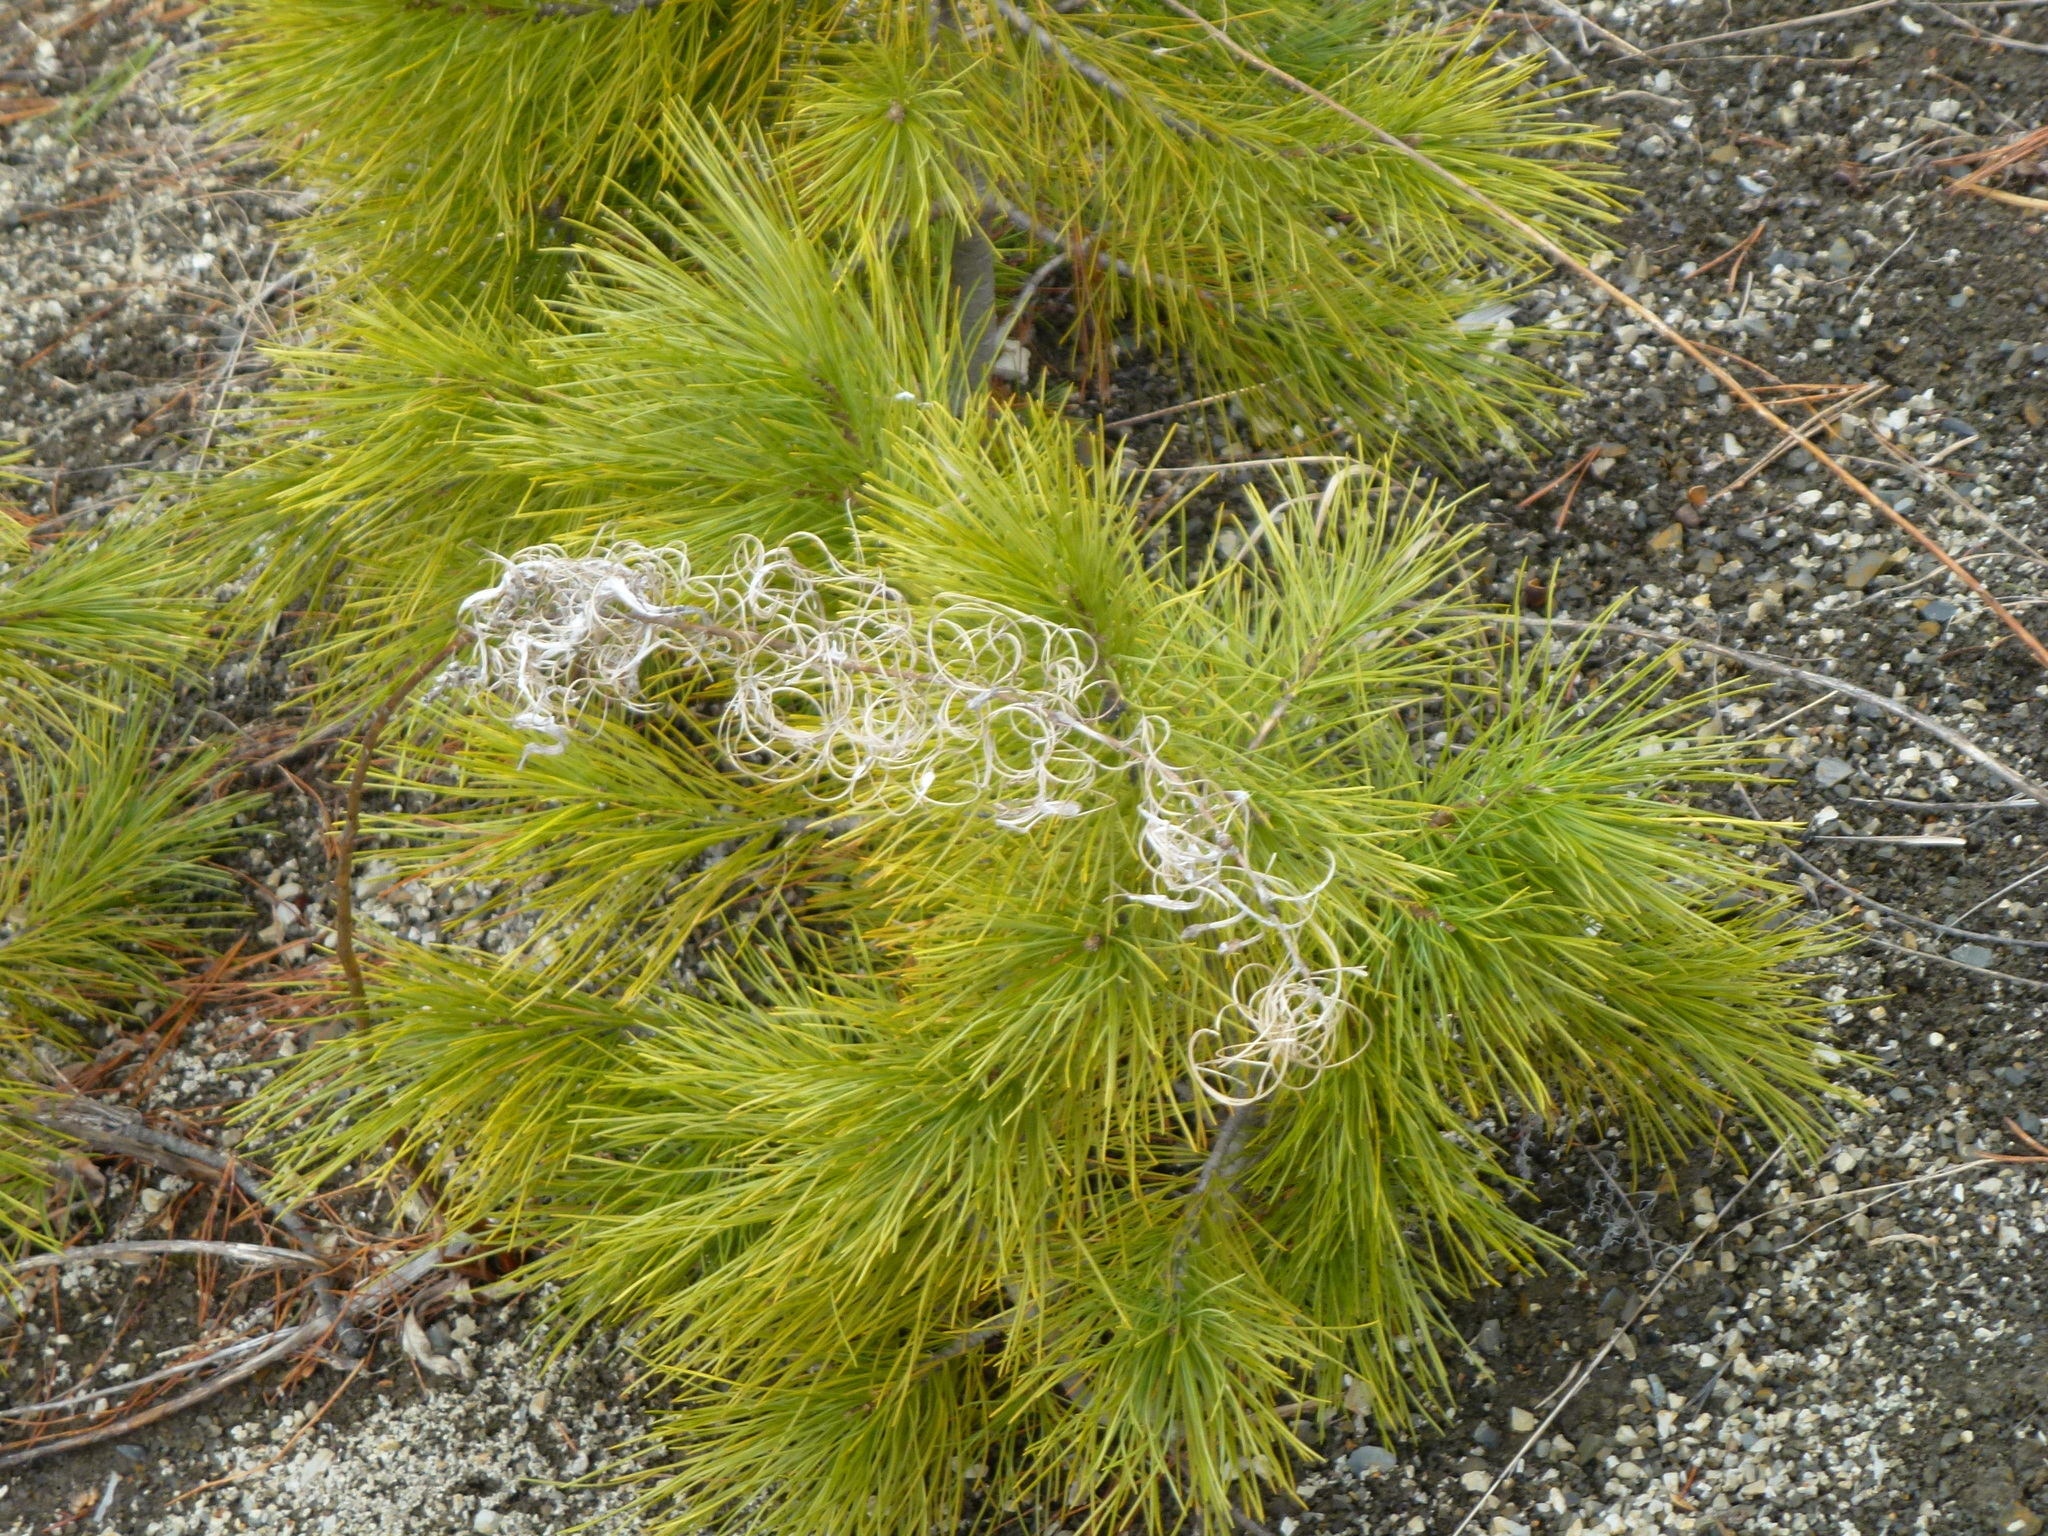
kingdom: Plantae
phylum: Tracheophyta
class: Magnoliopsida
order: Myrtales
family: Onagraceae
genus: Chamaenerion
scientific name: Chamaenerion angustifolium
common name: Fireweed
